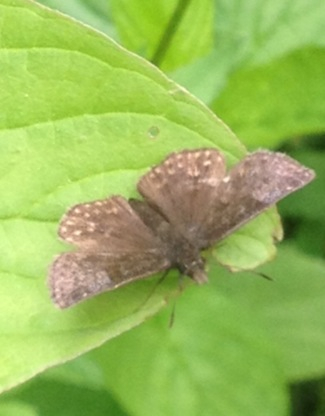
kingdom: Animalia
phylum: Arthropoda
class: Insecta
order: Lepidoptera
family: Hesperiidae
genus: Erynnis
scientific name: Erynnis icelus
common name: Dreamy duskywing
